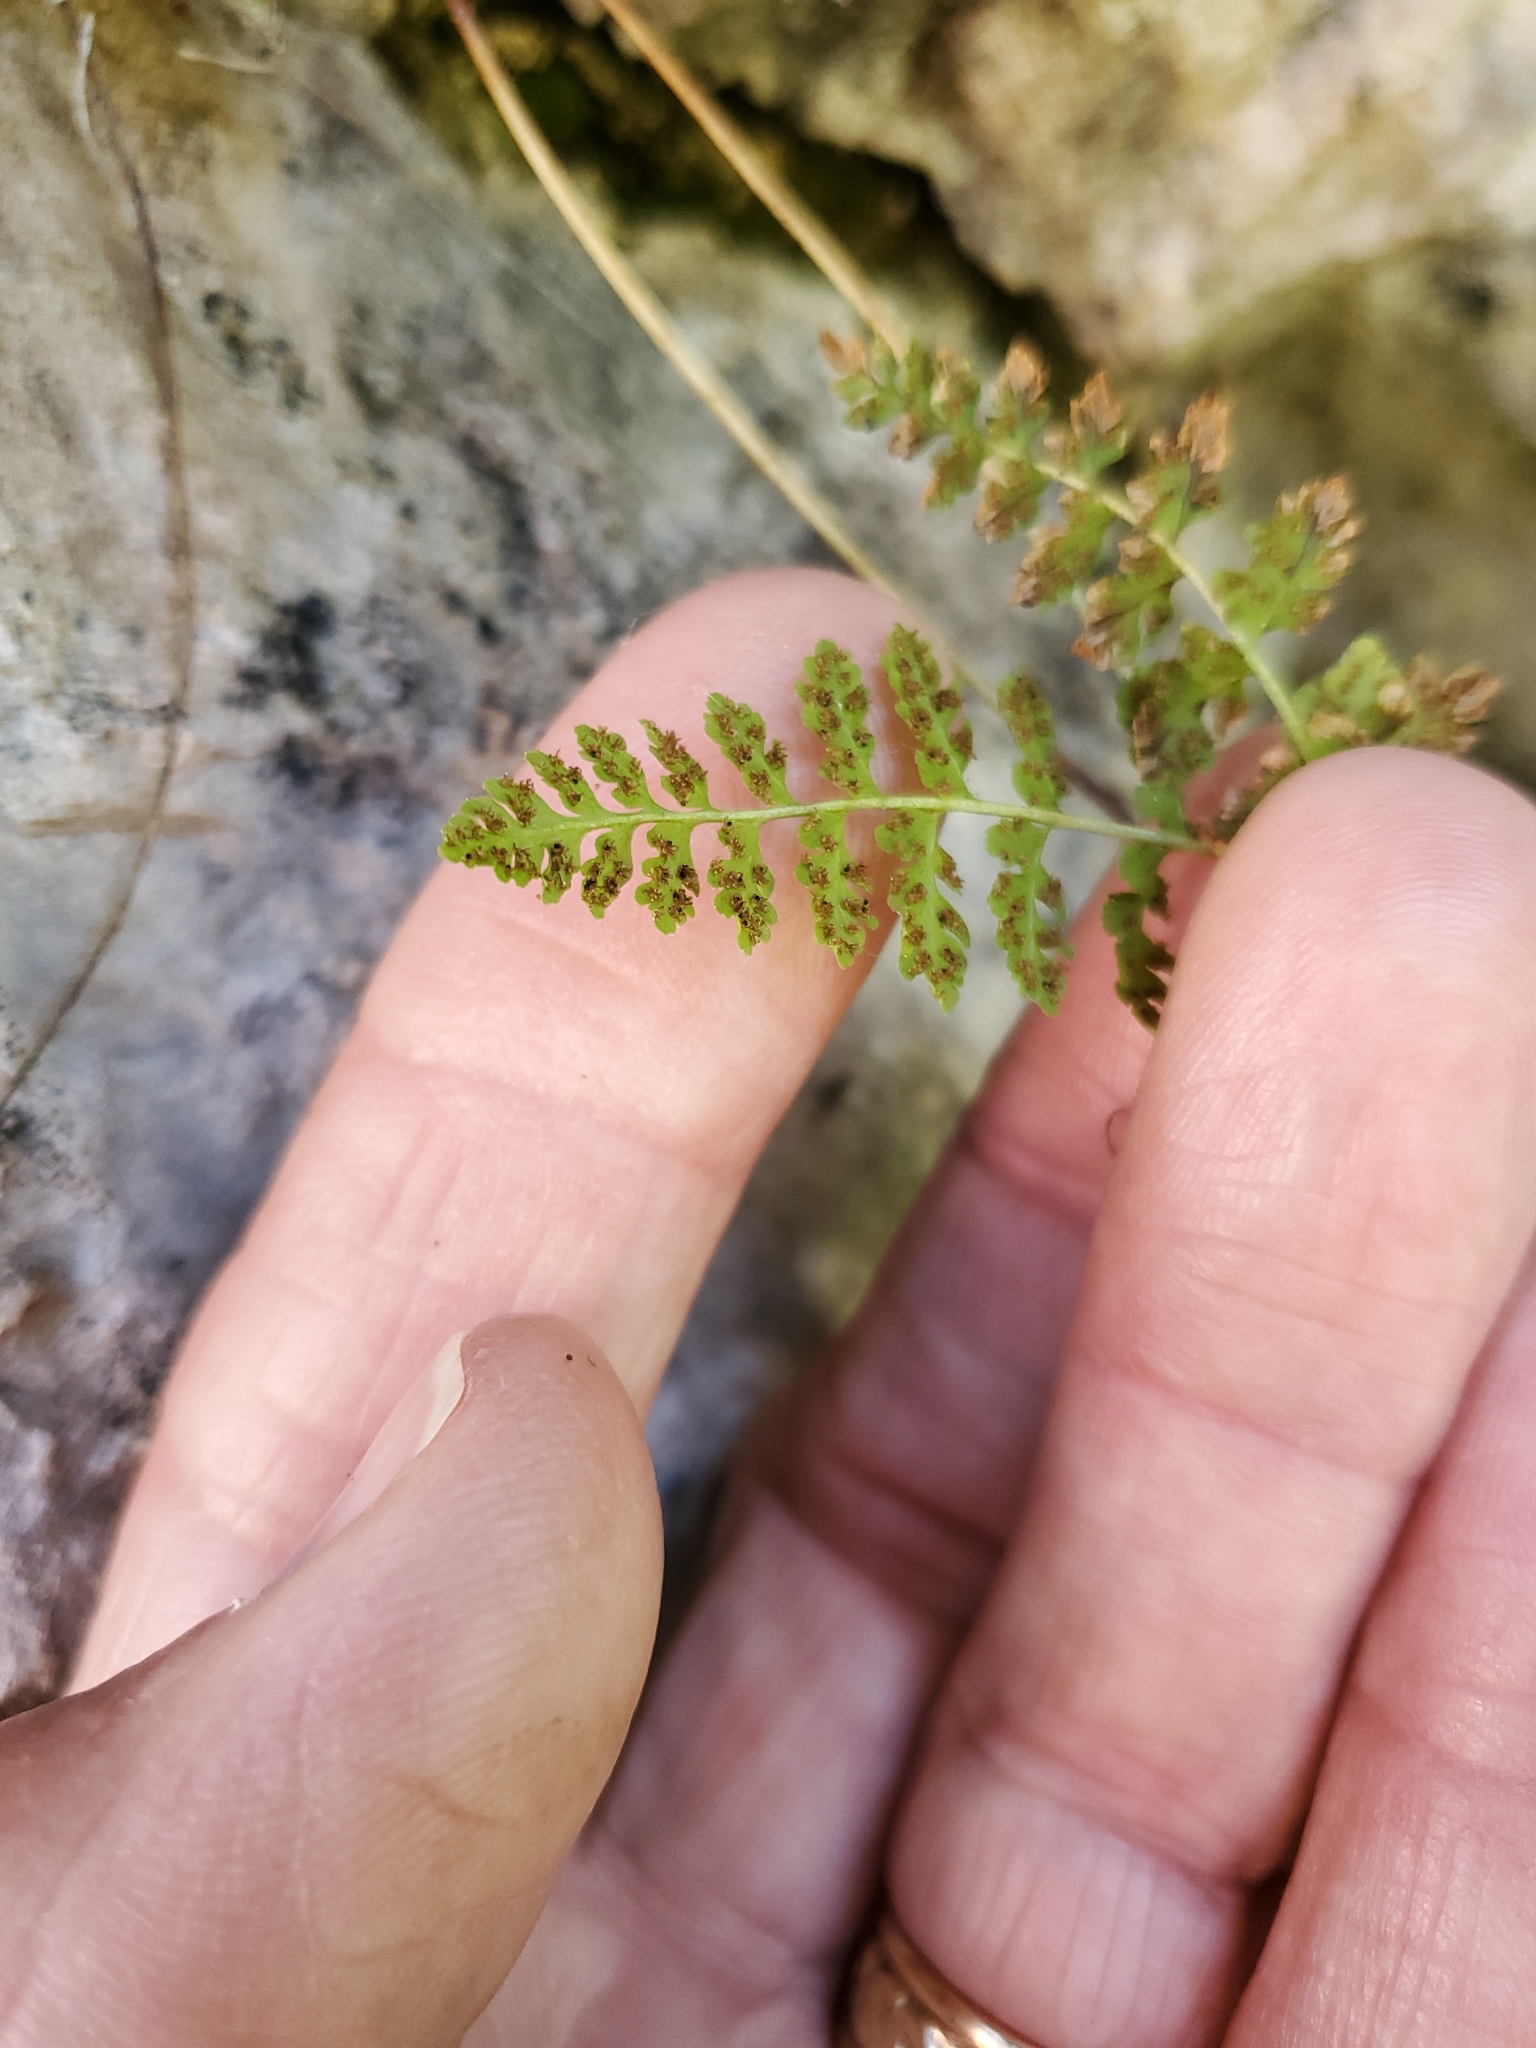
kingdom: Plantae
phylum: Tracheophyta
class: Polypodiopsida
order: Polypodiales
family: Cystopteridaceae
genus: Cystopteris
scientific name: Cystopteris fragilis
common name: Brittle bladder fern
